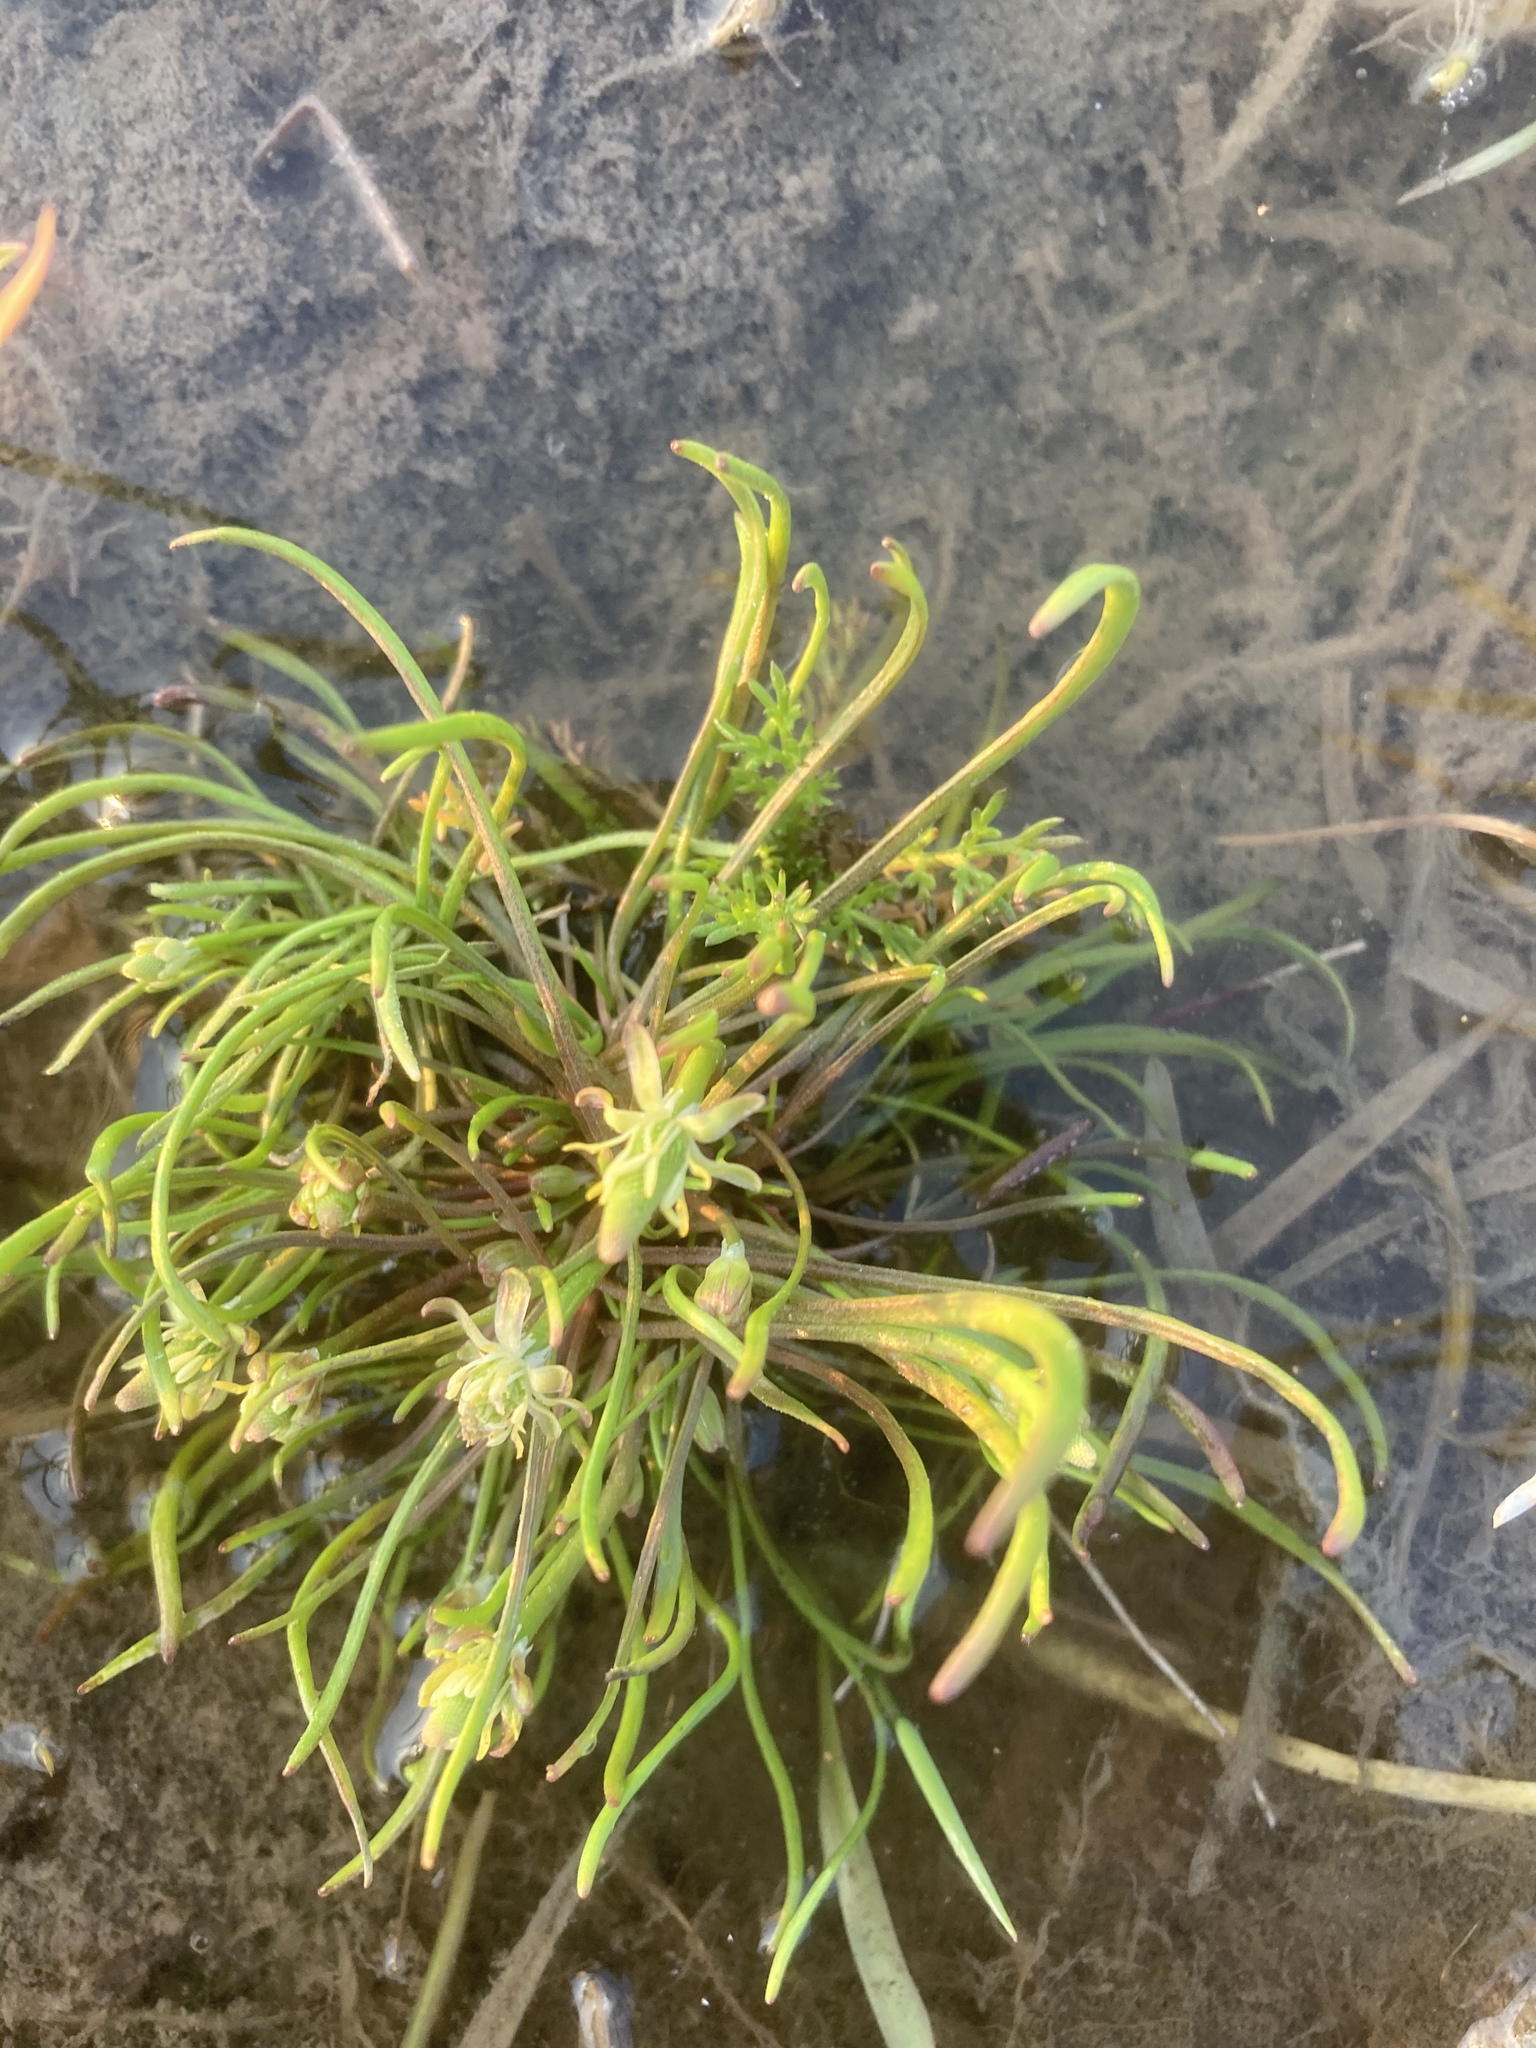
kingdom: Plantae
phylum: Tracheophyta
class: Magnoliopsida
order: Ranunculales
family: Ranunculaceae
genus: Myosurus
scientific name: Myosurus minimus
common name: Mousetail
